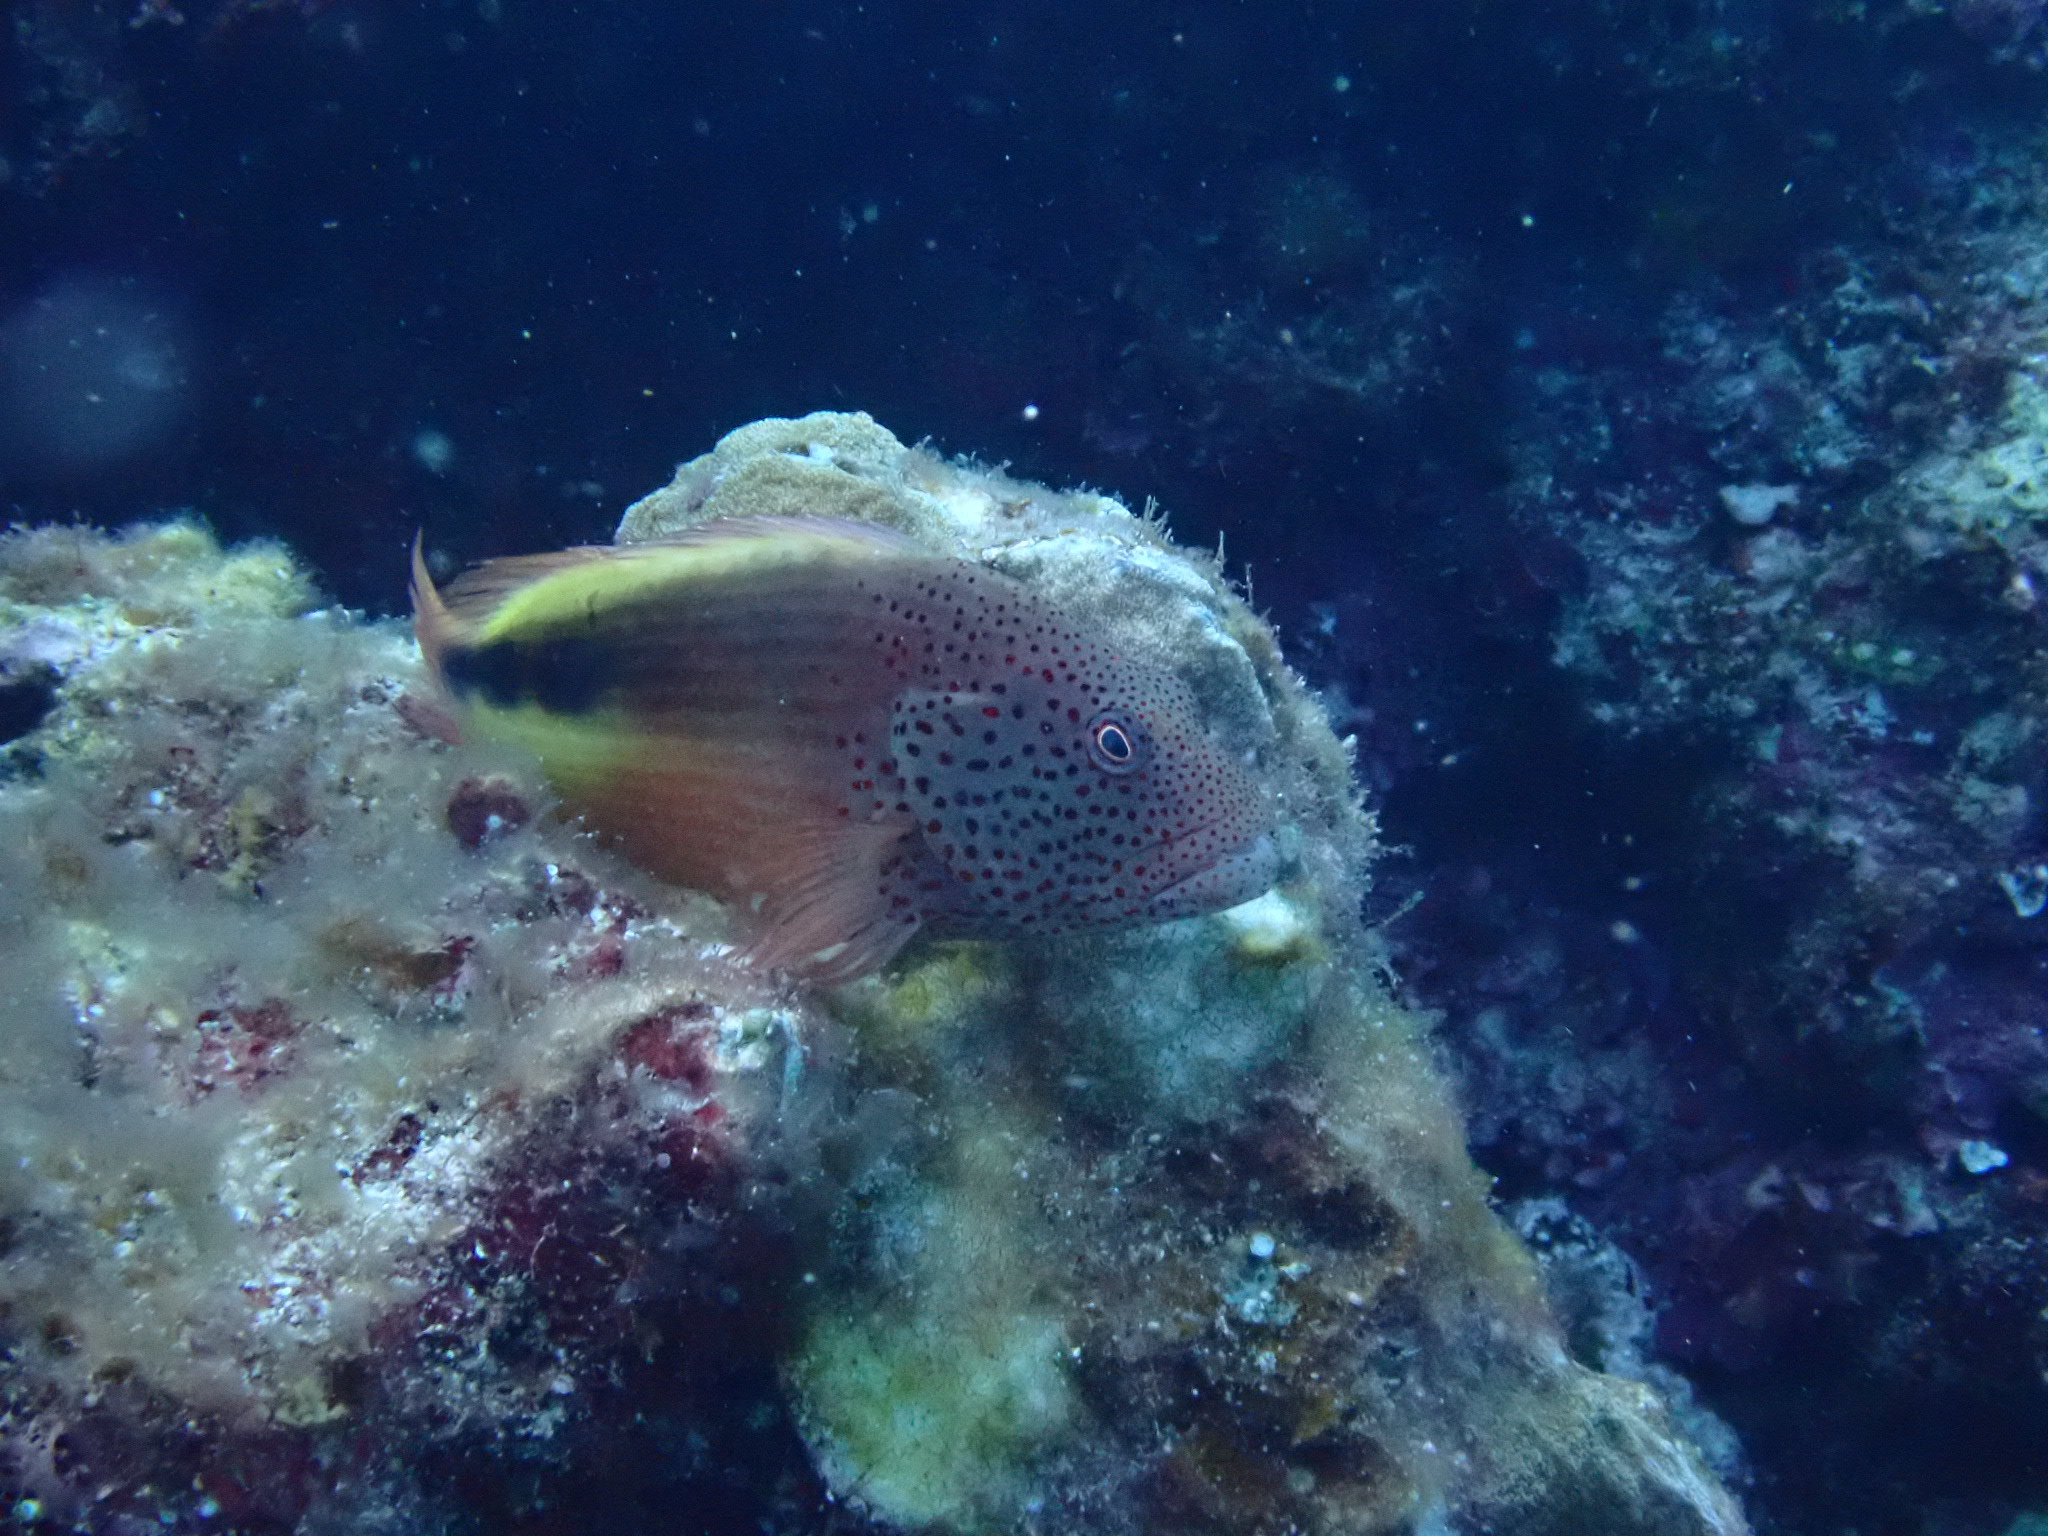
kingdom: Animalia
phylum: Chordata
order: Perciformes
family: Cirrhitidae
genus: Paracirrhites
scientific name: Paracirrhites forsteri
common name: Freckled hawkfish
